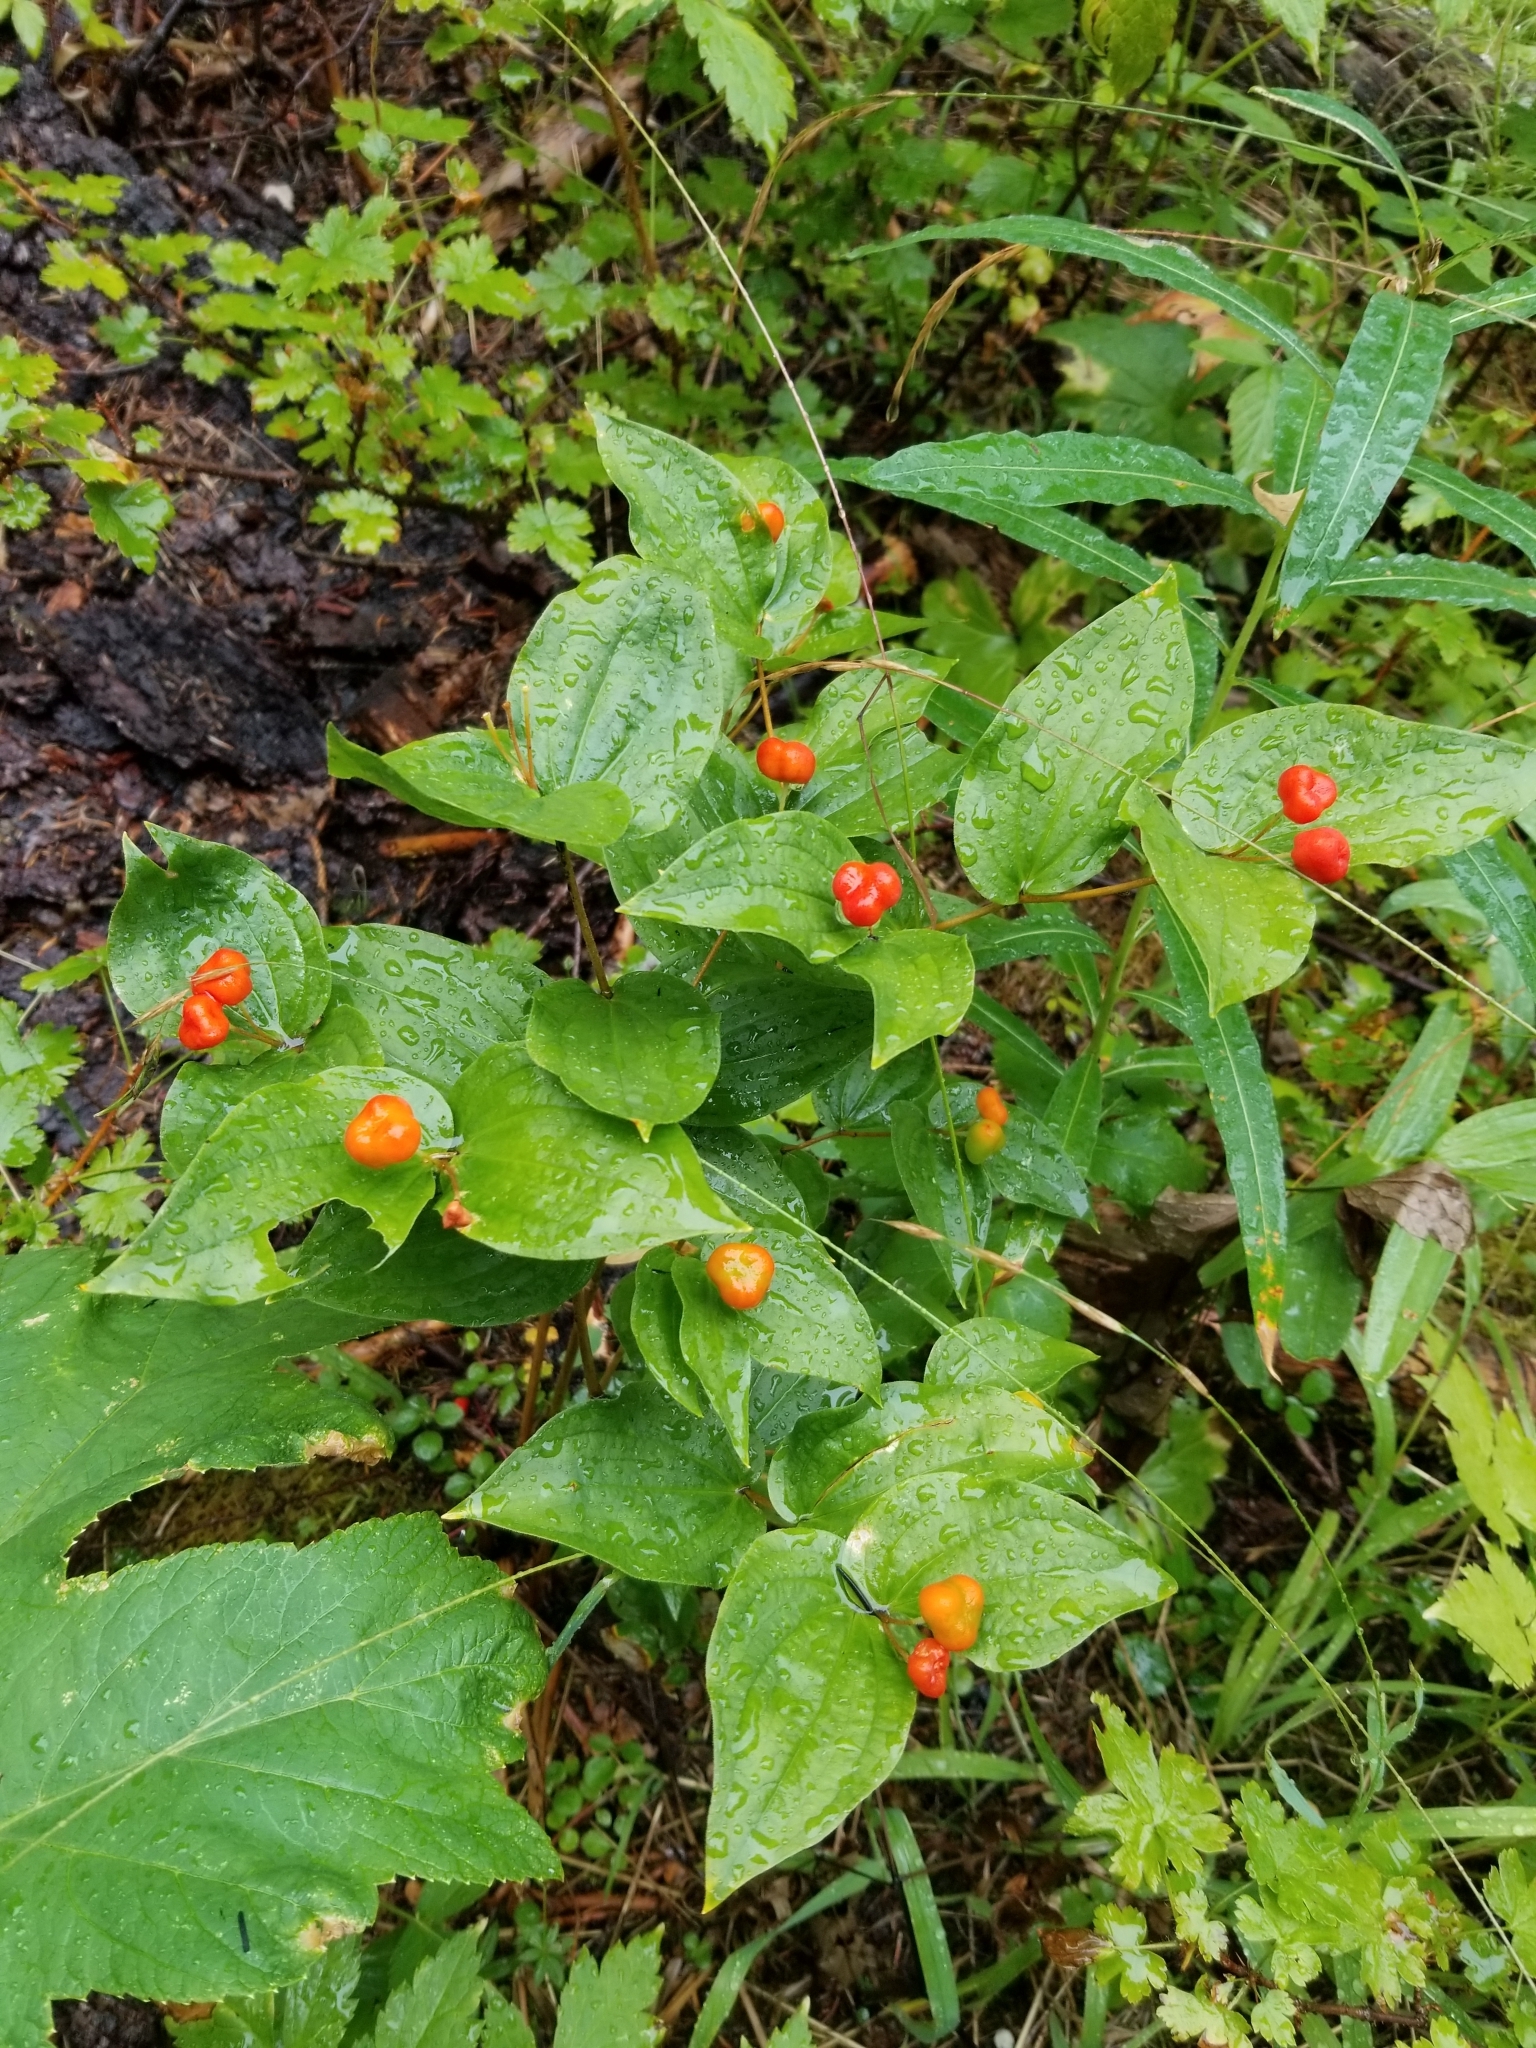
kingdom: Plantae
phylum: Tracheophyta
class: Liliopsida
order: Liliales
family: Liliaceae
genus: Prosartes
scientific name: Prosartes trachycarpa
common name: Rough-fruit fairy-bells
